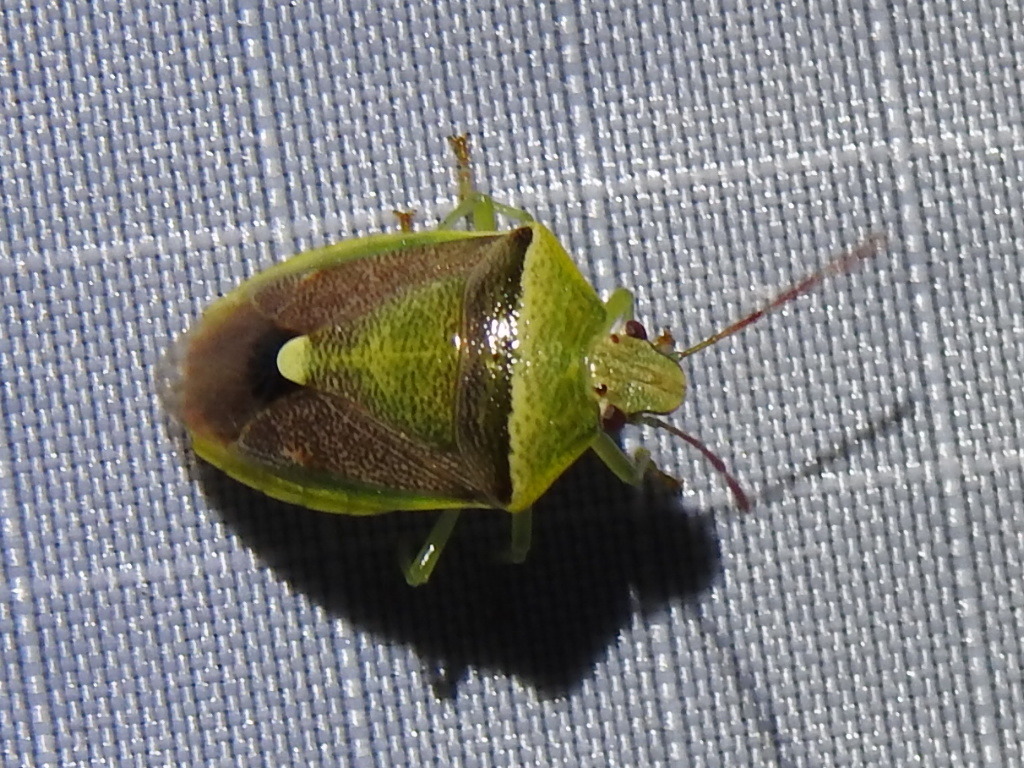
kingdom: Animalia
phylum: Arthropoda
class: Insecta
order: Hemiptera
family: Pentatomidae
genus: Banasa
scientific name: Banasa dimidiata
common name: Green burgundy stink bug
